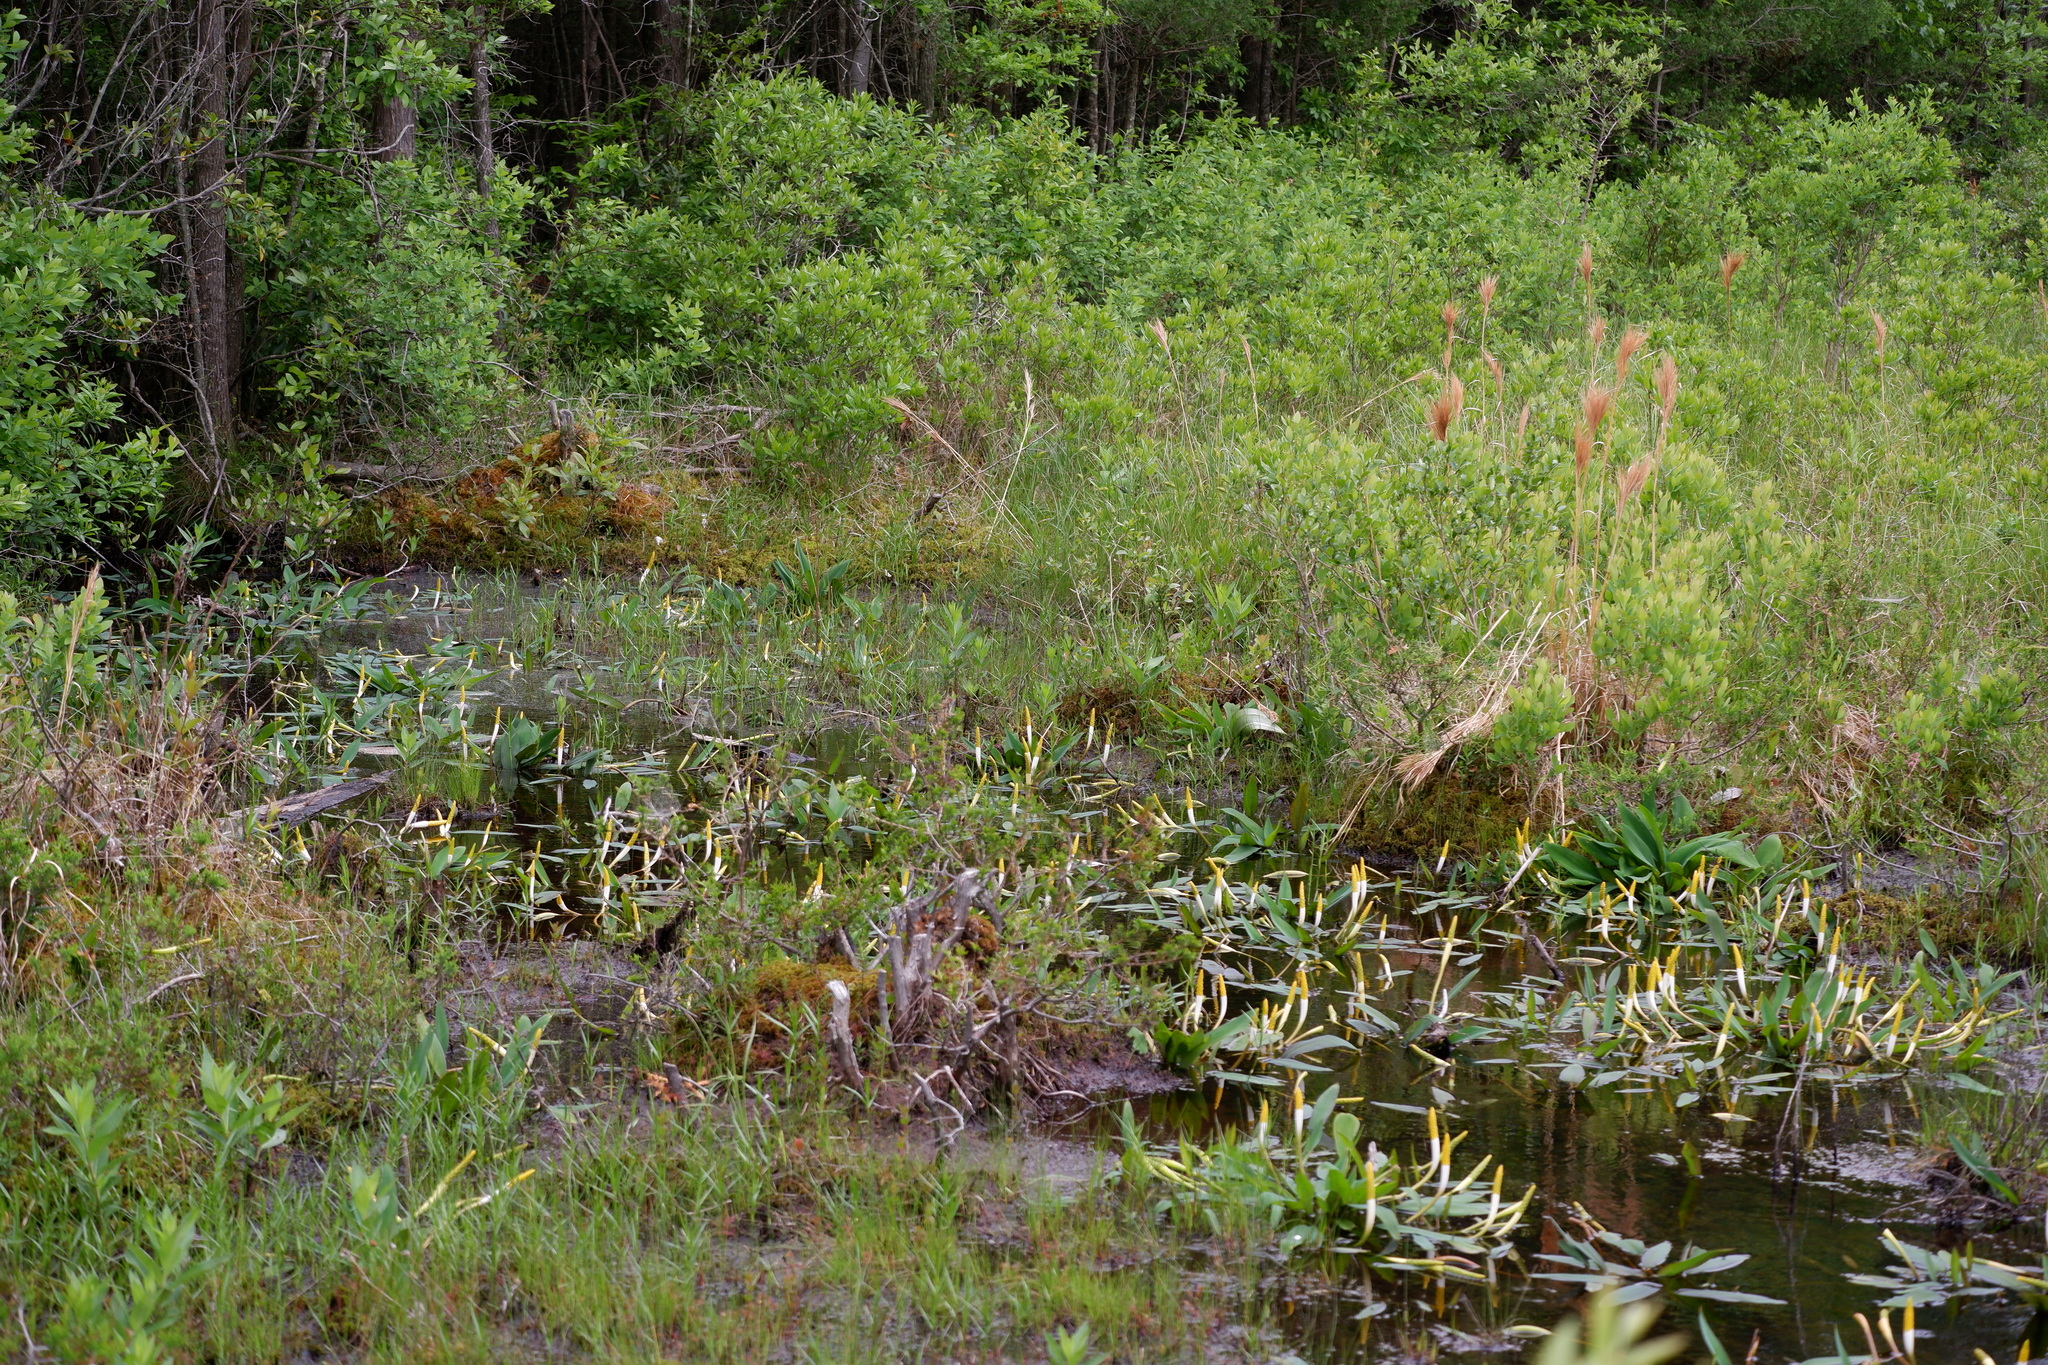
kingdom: Plantae
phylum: Tracheophyta
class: Liliopsida
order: Alismatales
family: Araceae
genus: Orontium
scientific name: Orontium aquaticum
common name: Golden-club
